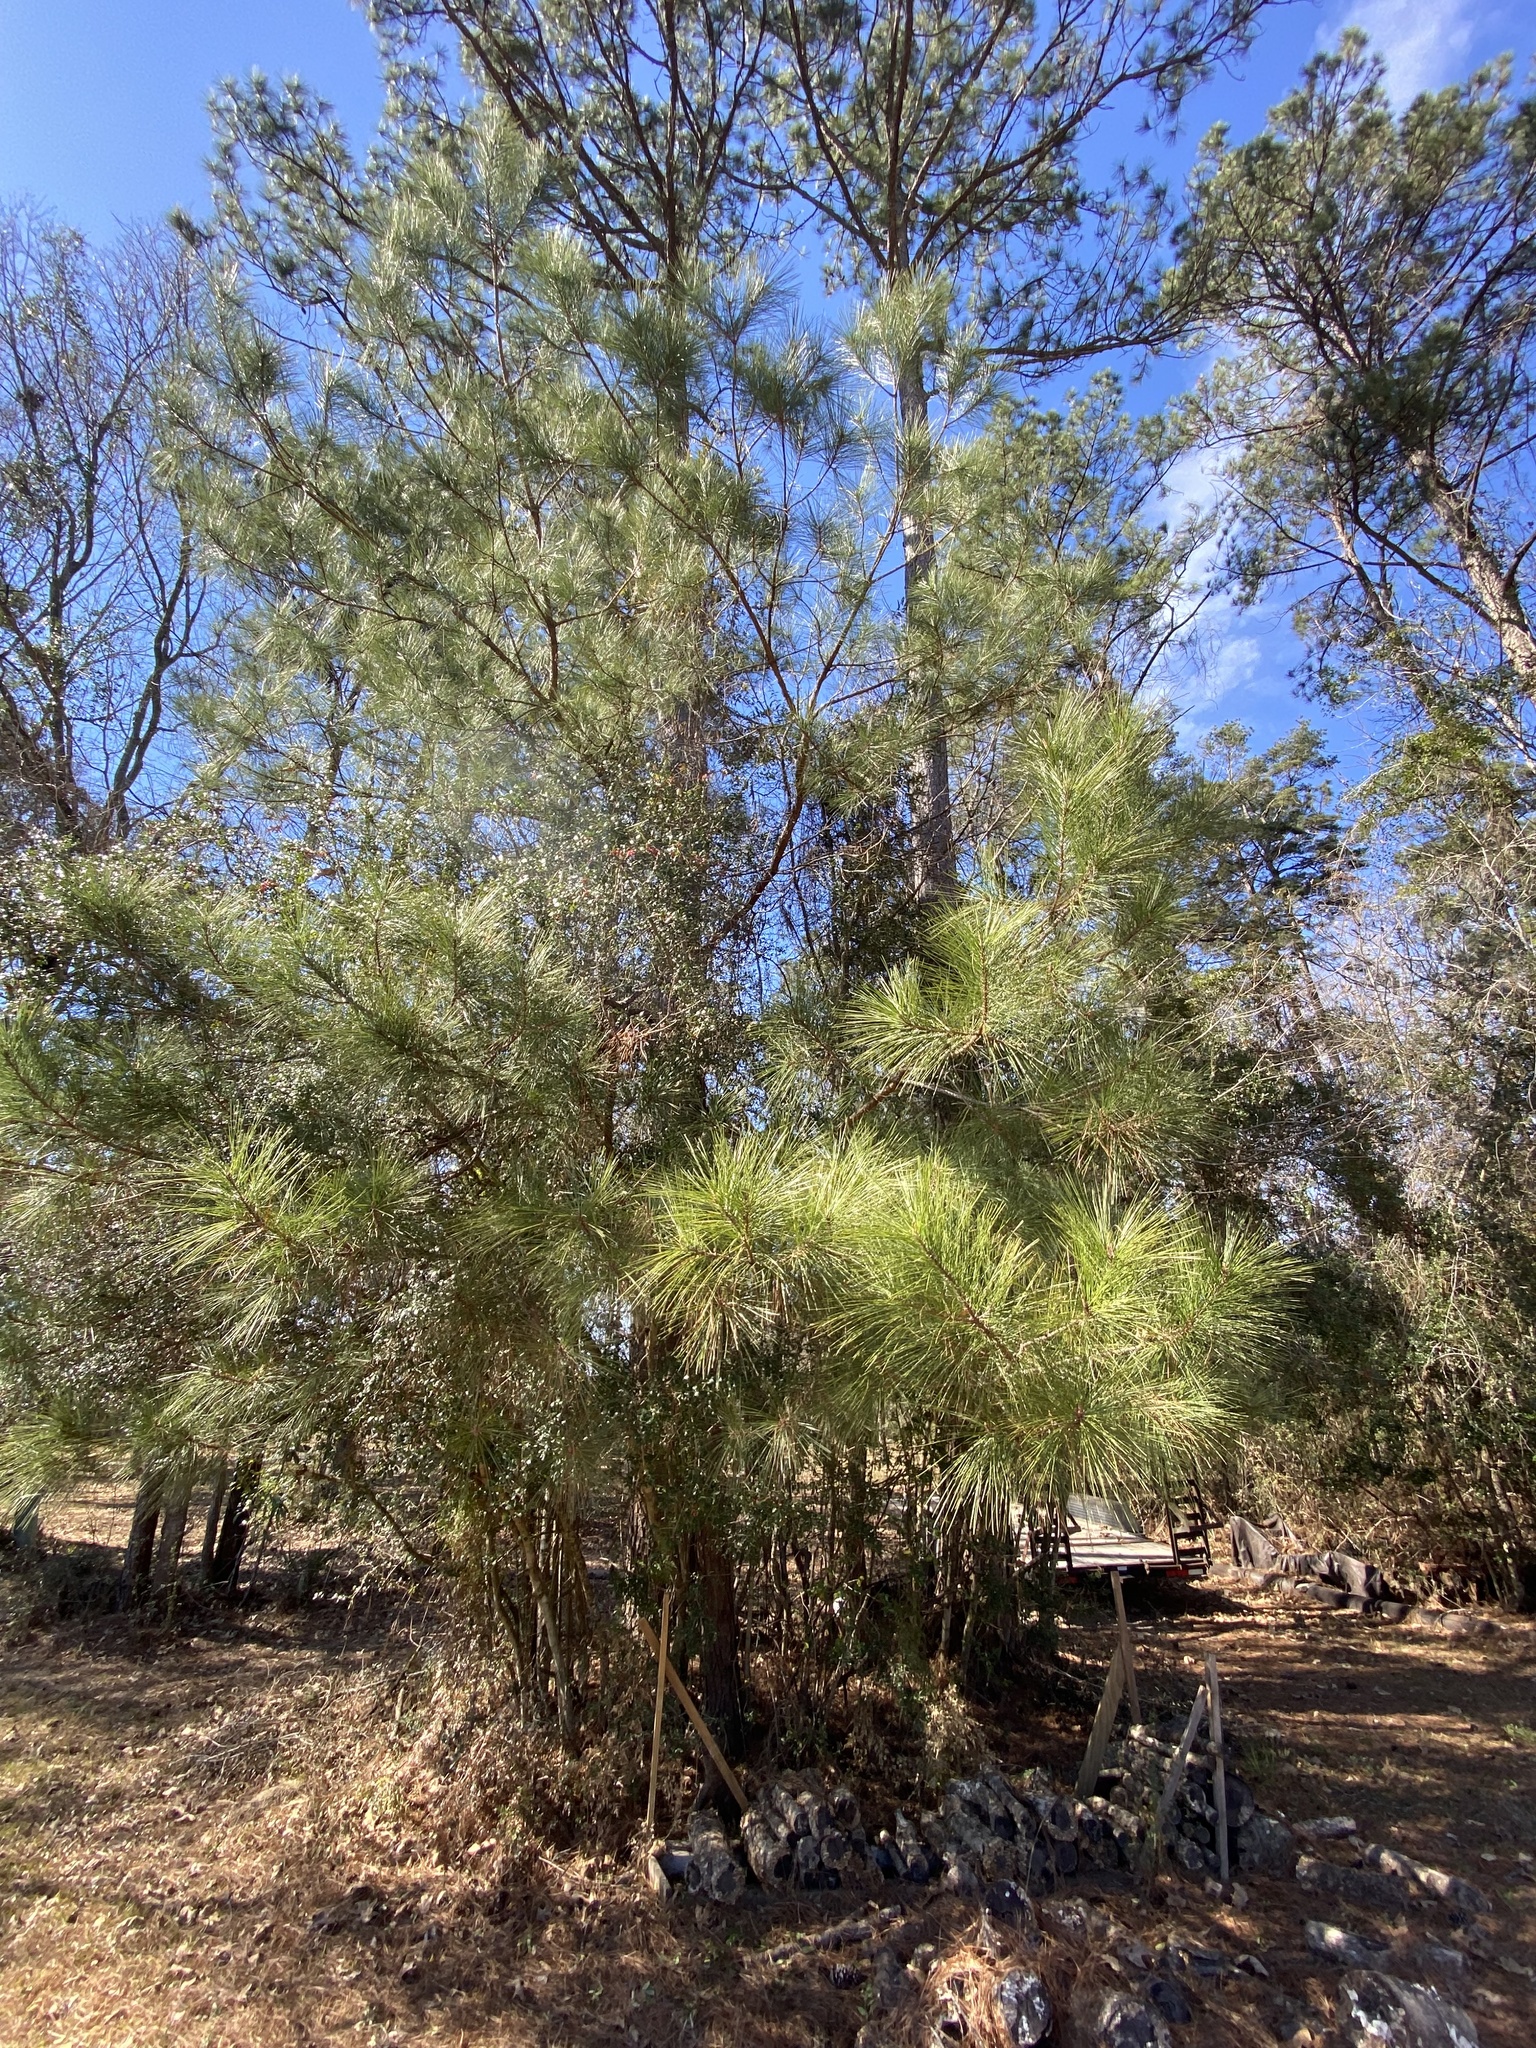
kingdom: Plantae
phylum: Tracheophyta
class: Pinopsida
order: Pinales
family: Pinaceae
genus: Pinus
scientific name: Pinus taeda
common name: Loblolly pine
